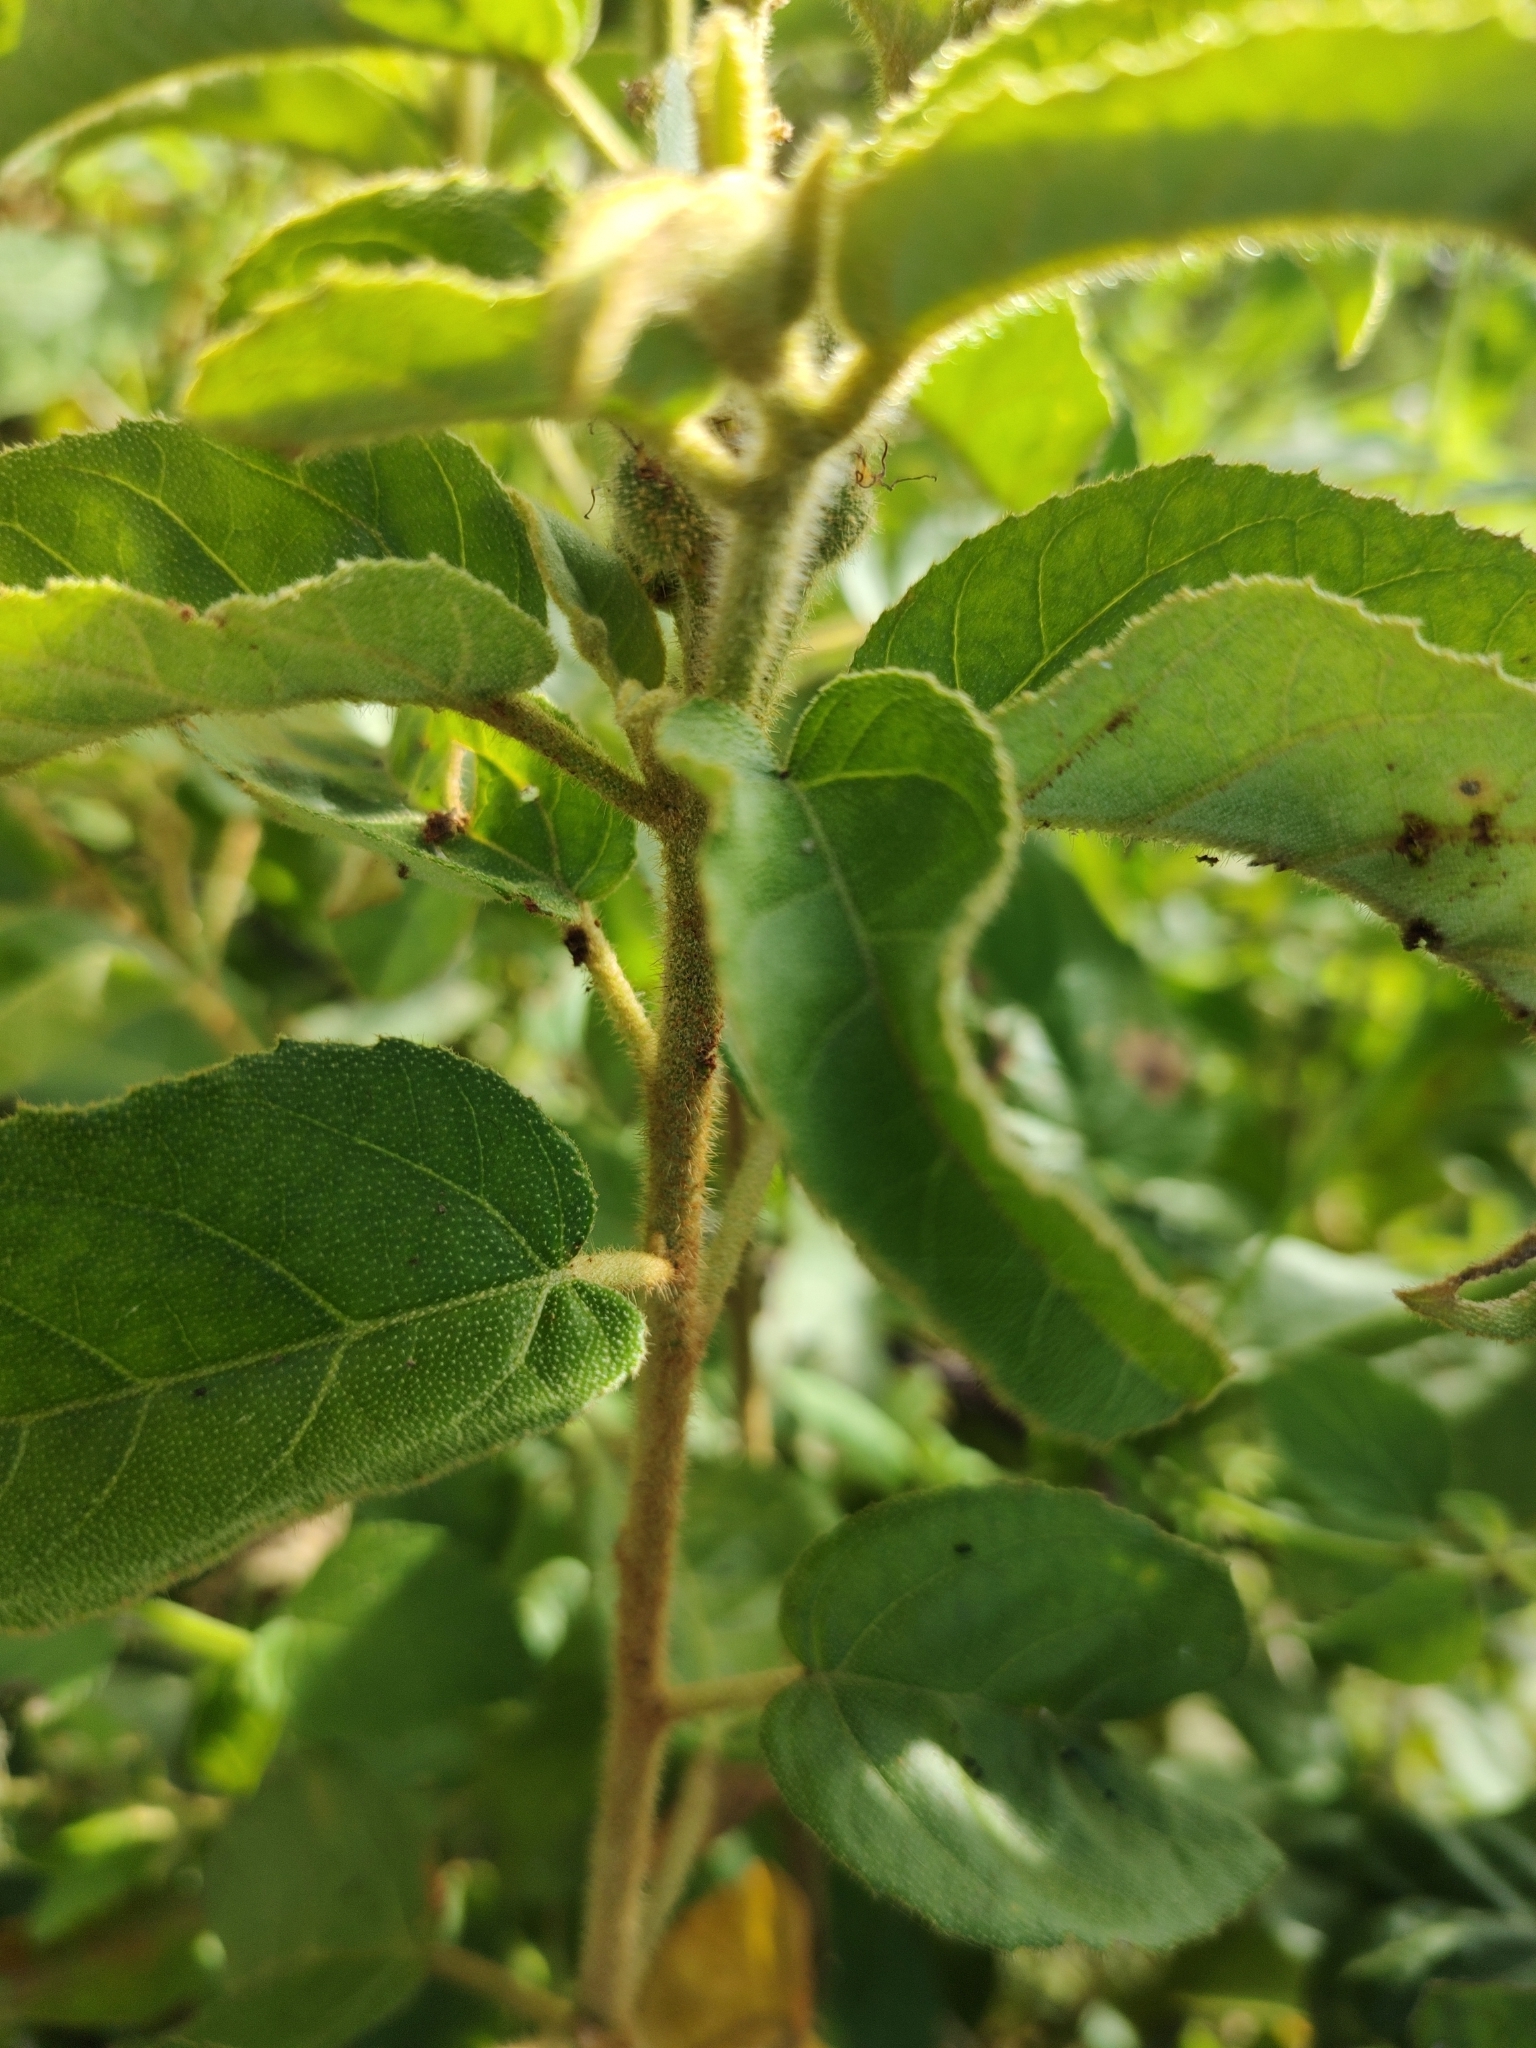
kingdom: Plantae
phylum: Tracheophyta
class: Magnoliopsida
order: Malpighiales
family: Euphorbiaceae
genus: Croton
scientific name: Croton heliotropiifolius
